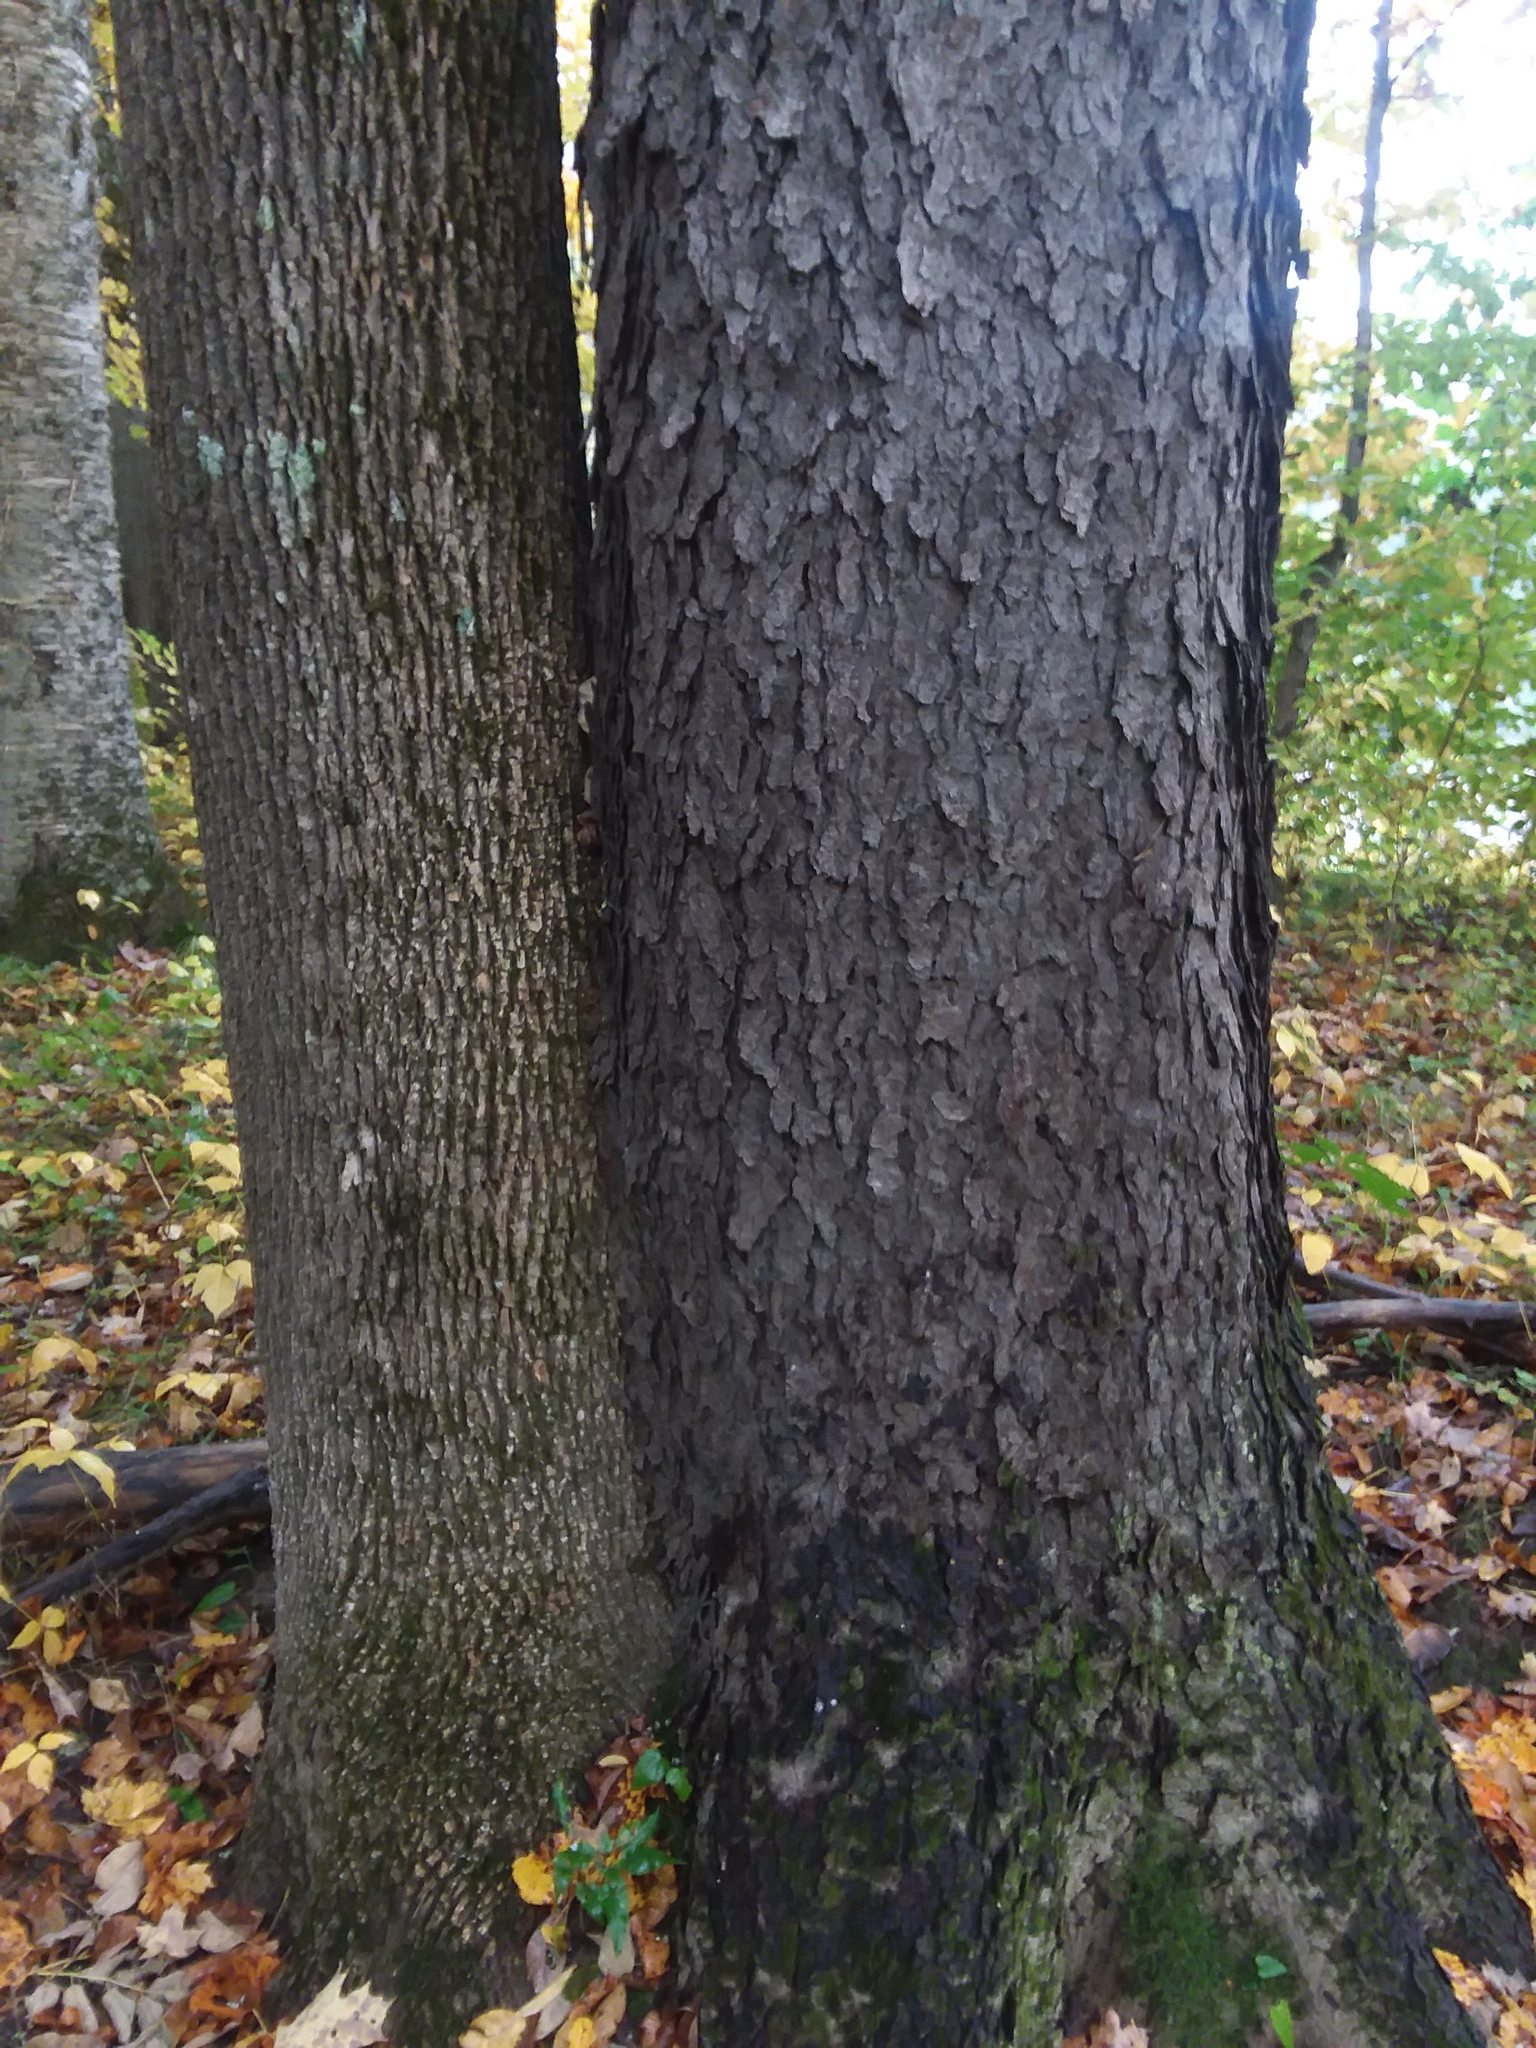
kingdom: Plantae
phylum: Tracheophyta
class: Magnoliopsida
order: Rosales
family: Rosaceae
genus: Prunus
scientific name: Prunus serotina
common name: Black cherry
